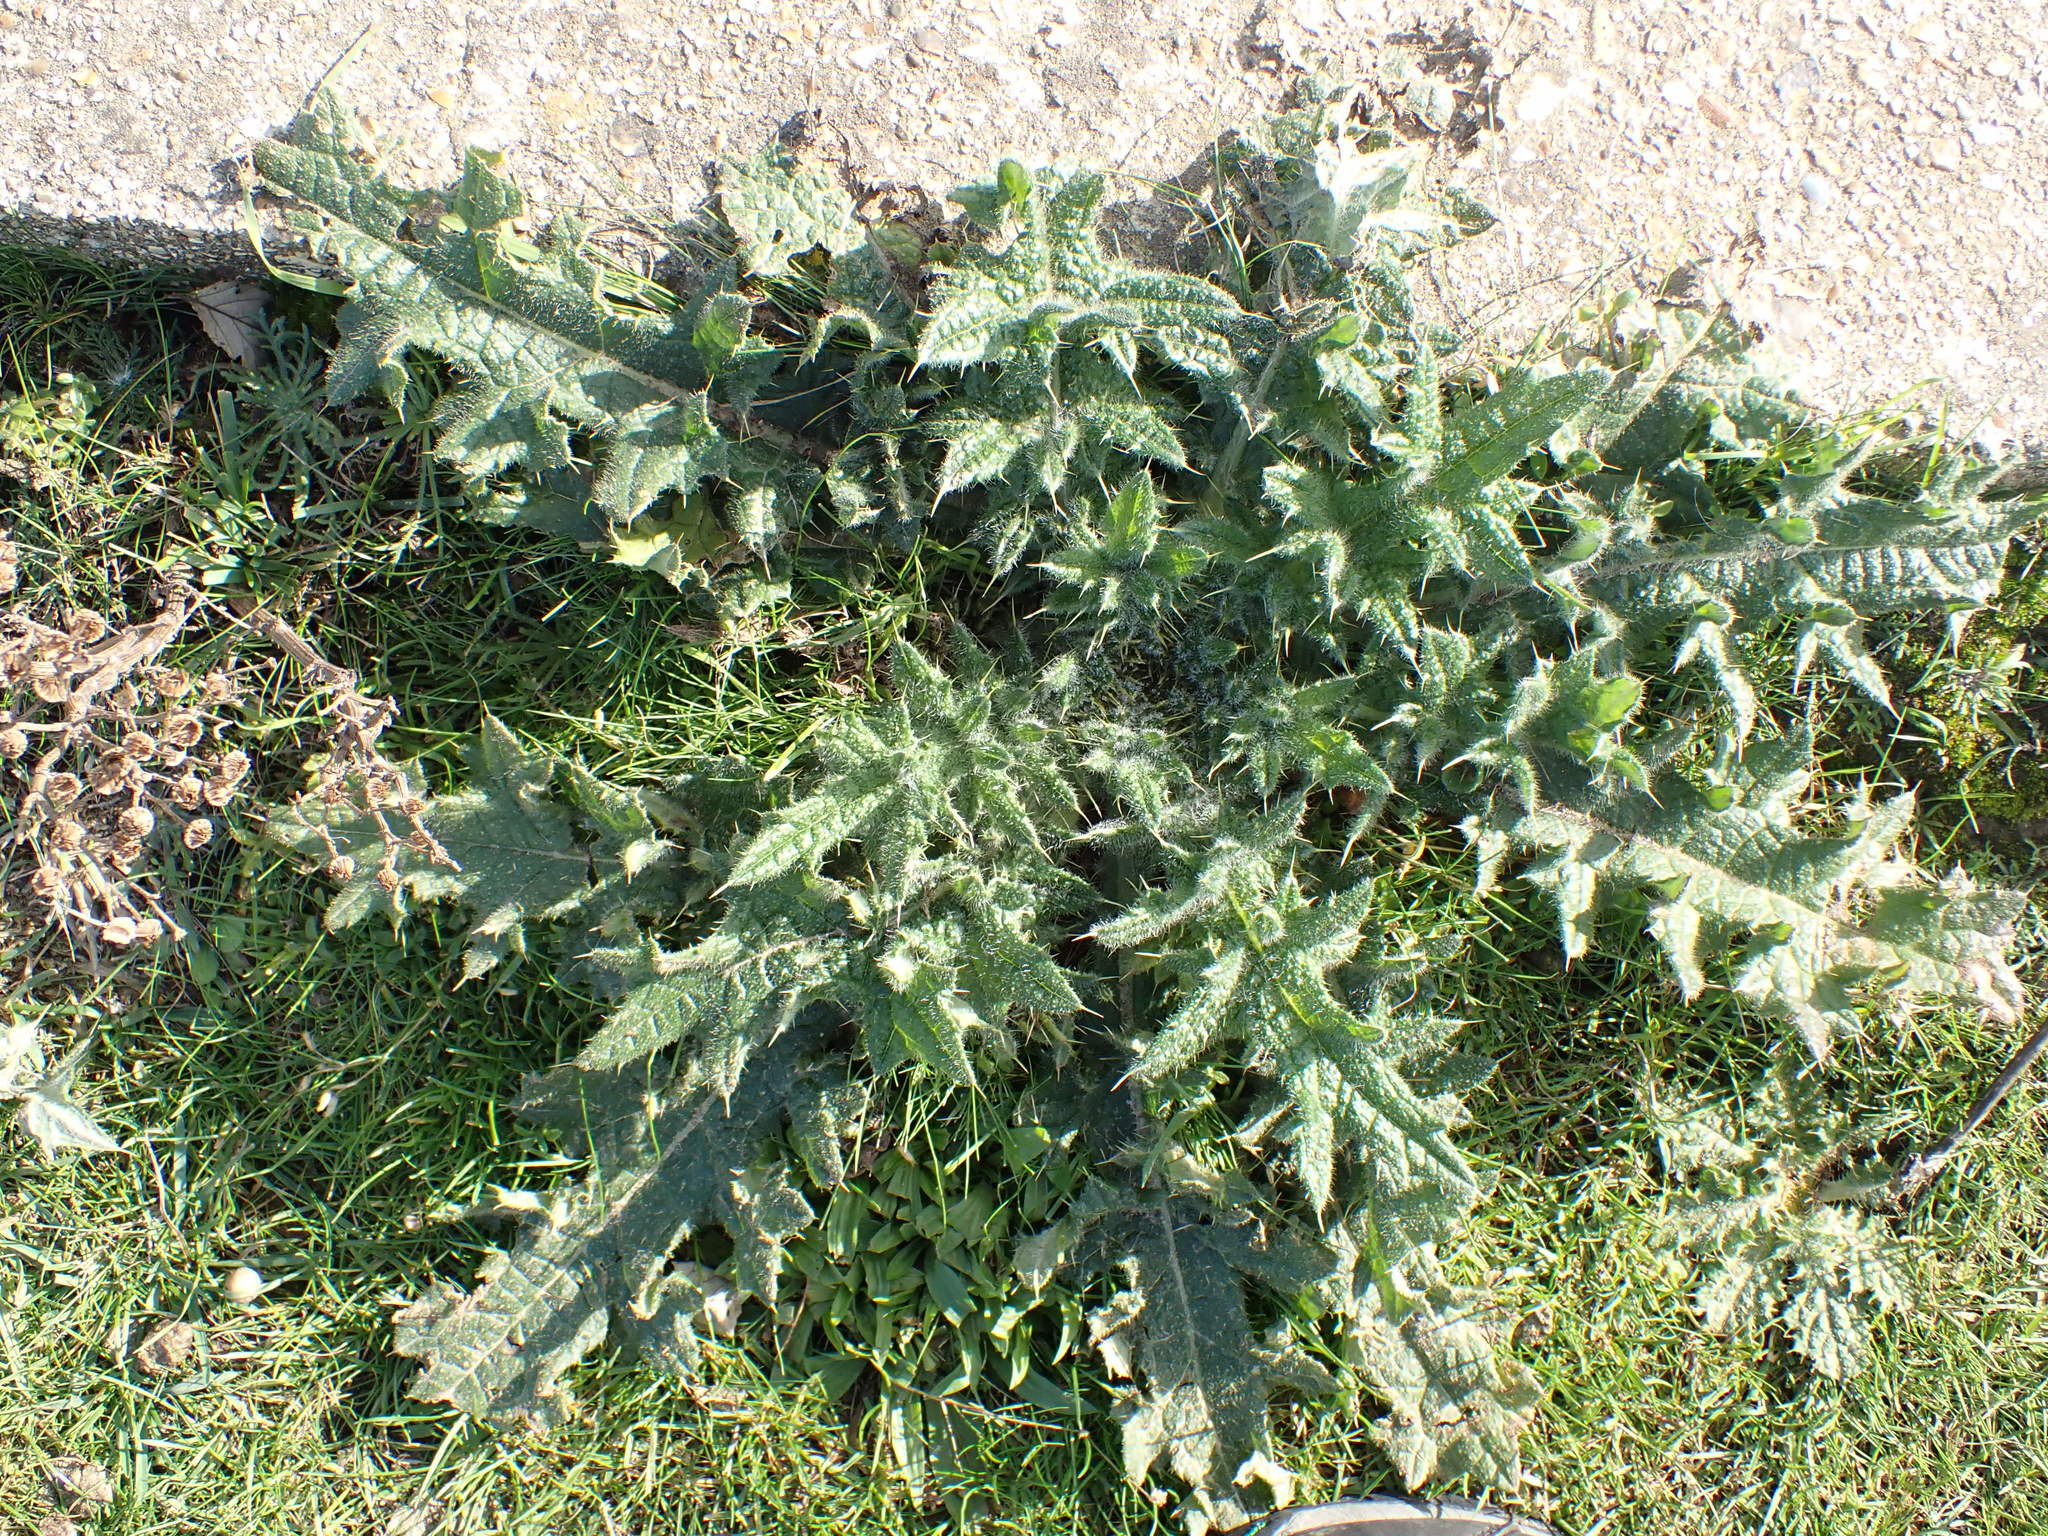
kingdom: Plantae
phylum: Tracheophyta
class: Magnoliopsida
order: Asterales
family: Asteraceae
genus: Cirsium
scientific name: Cirsium vulgare
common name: Bull thistle
